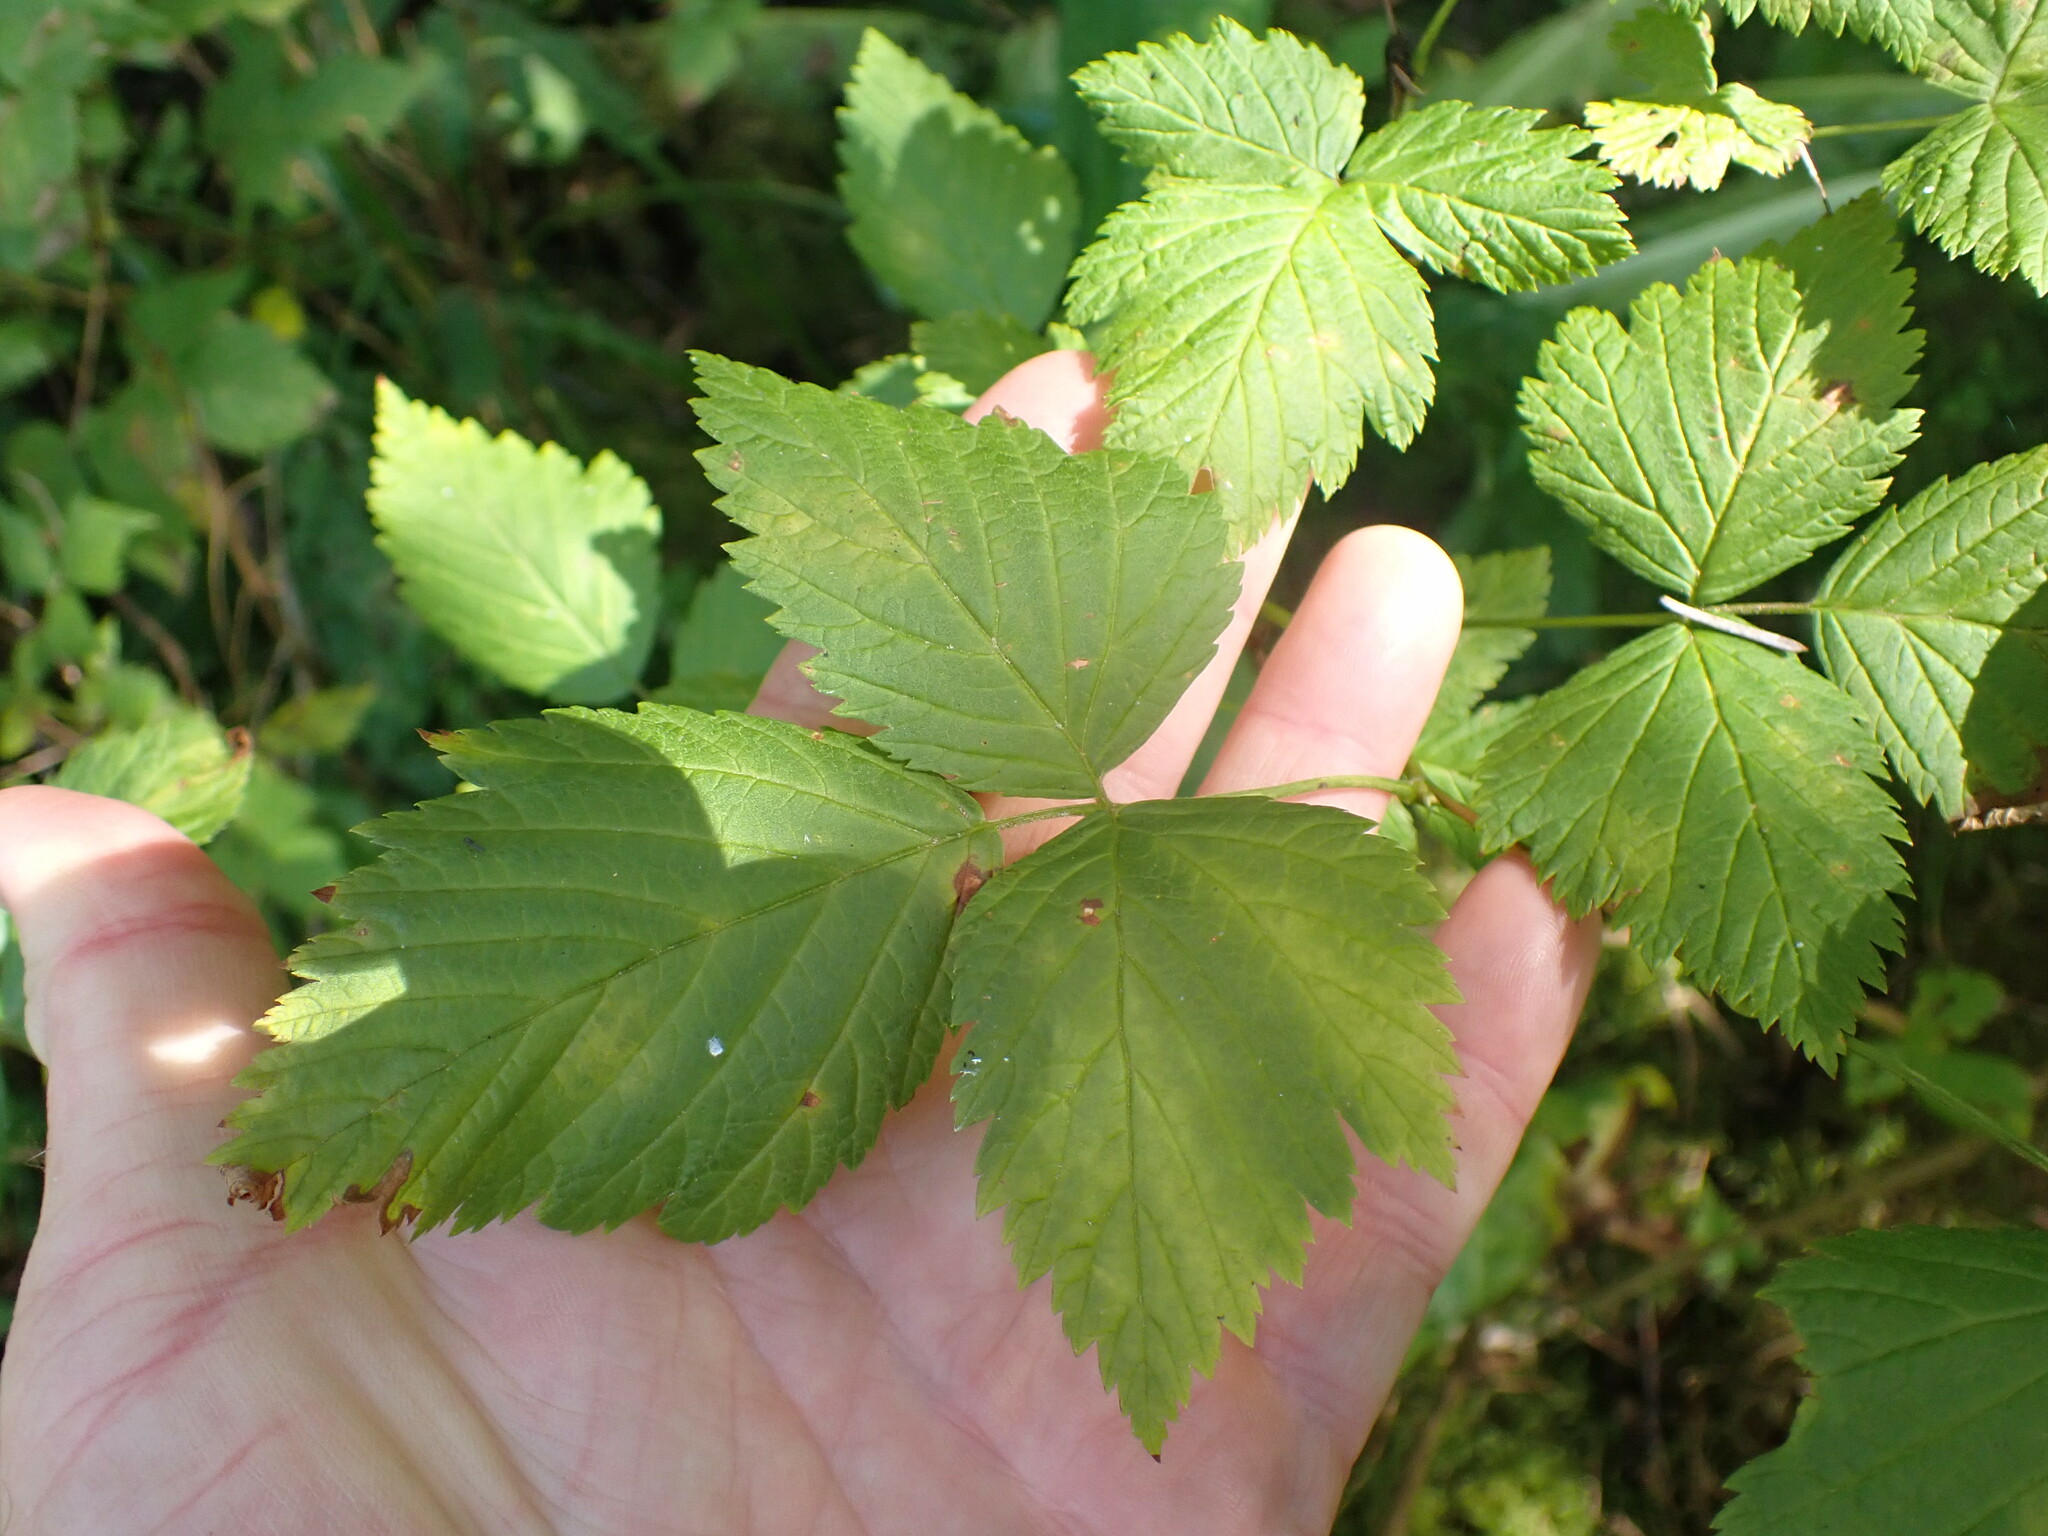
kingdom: Plantae
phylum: Tracheophyta
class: Magnoliopsida
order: Rosales
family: Rosaceae
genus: Rubus
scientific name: Rubus spectabilis
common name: Salmonberry
